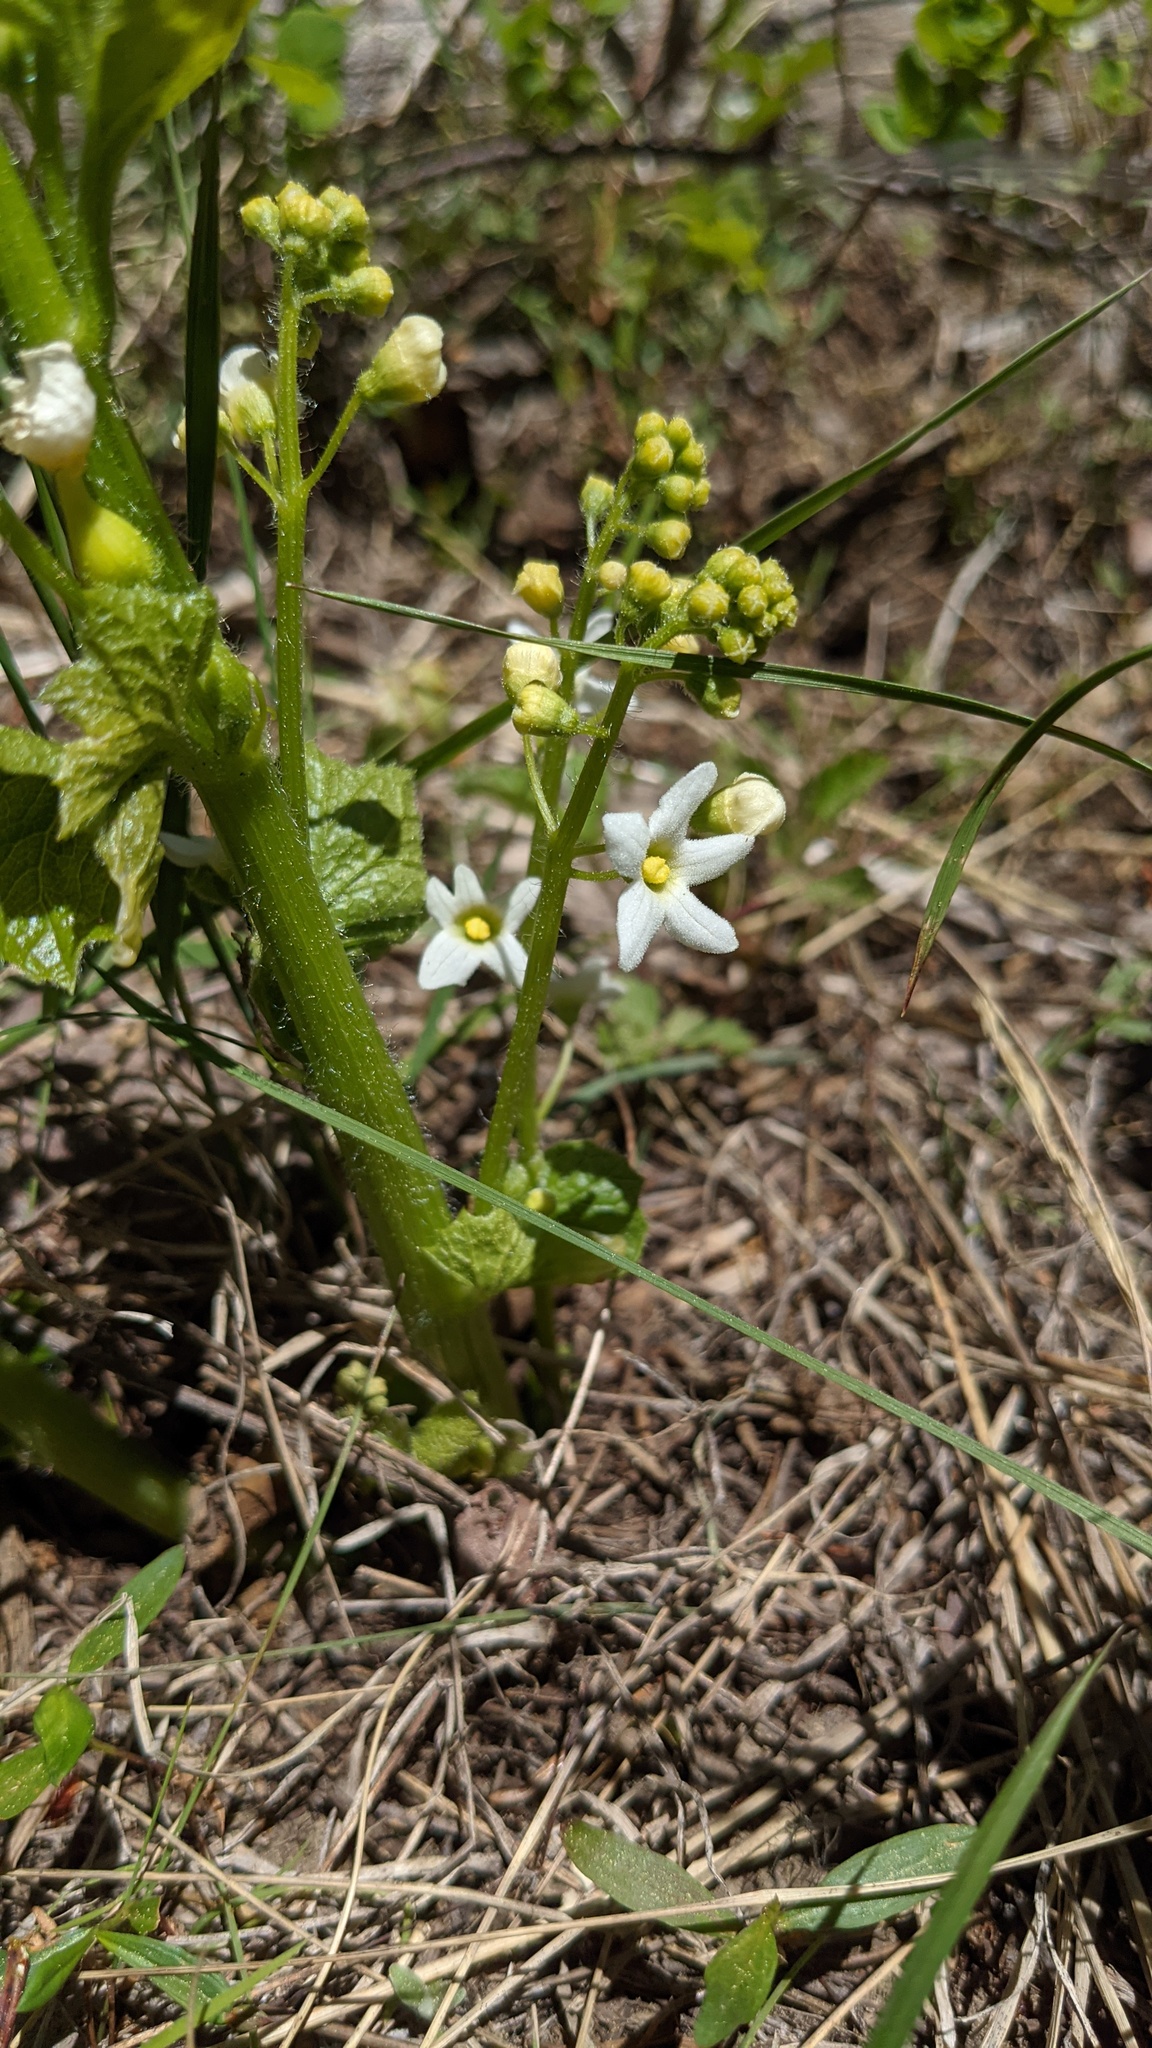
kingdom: Plantae
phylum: Tracheophyta
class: Magnoliopsida
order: Cucurbitales
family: Cucurbitaceae
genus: Marah
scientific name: Marah oregana
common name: Coastal manroot
